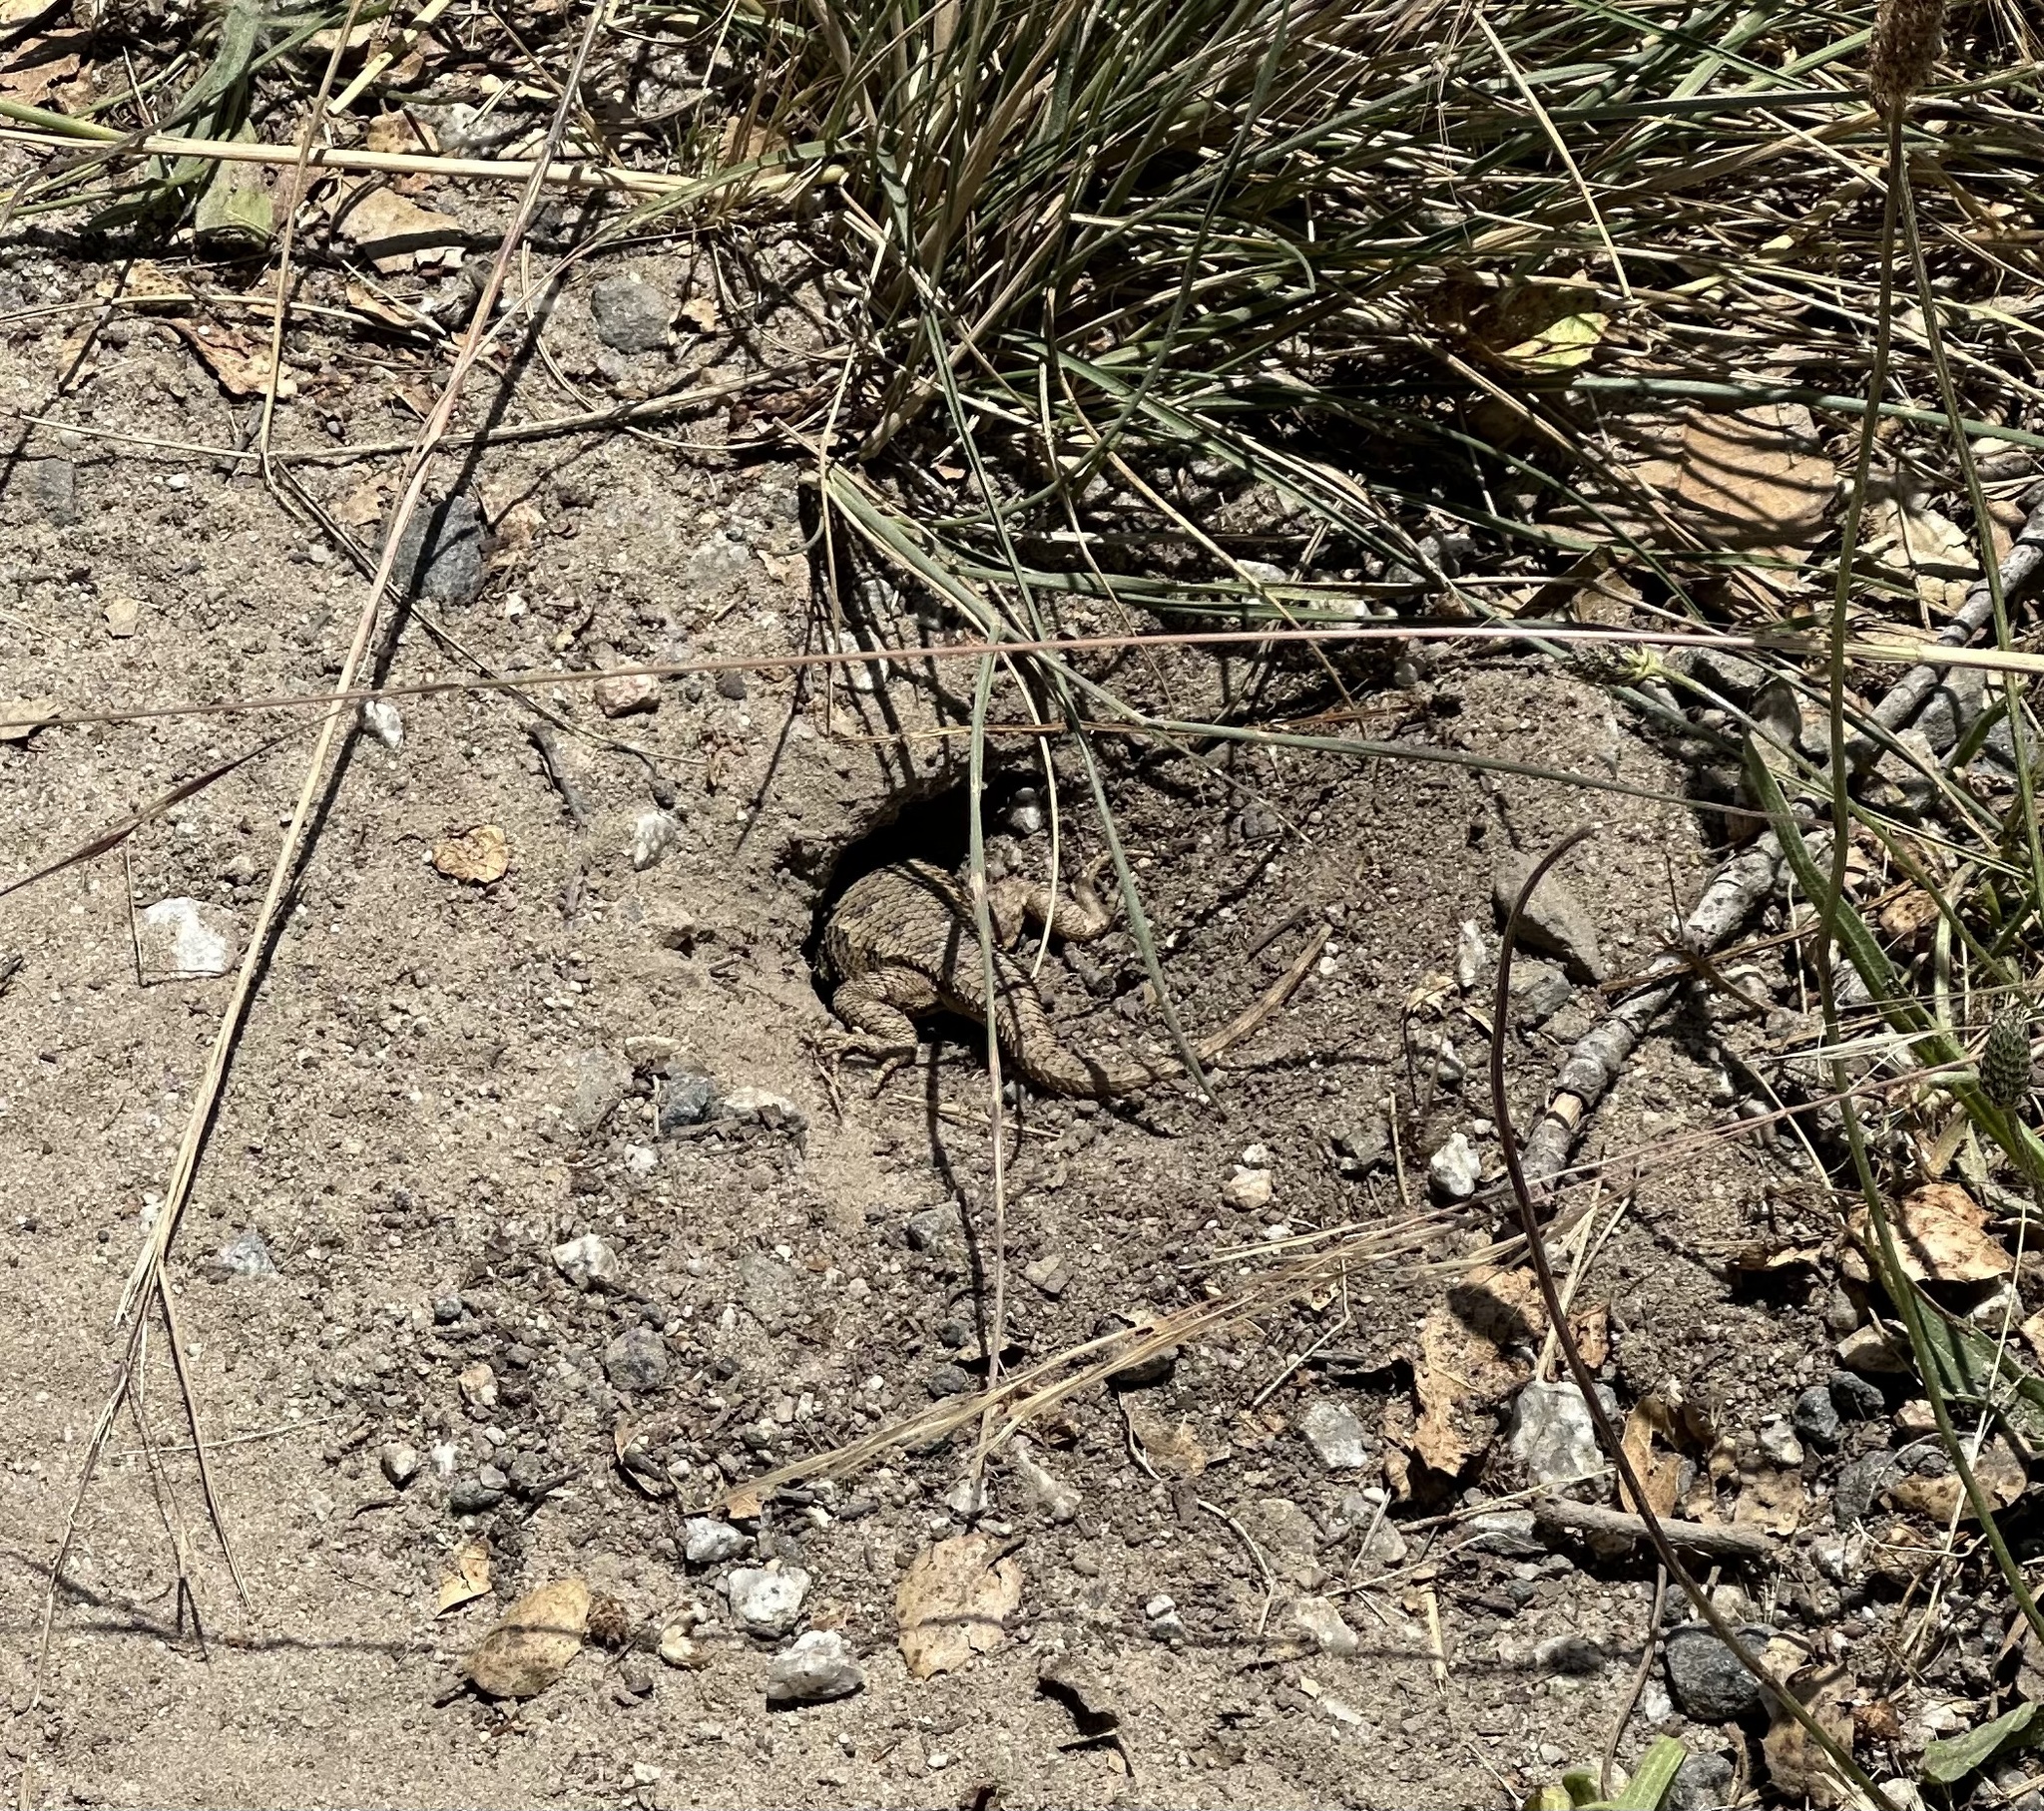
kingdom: Animalia
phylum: Chordata
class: Squamata
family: Phrynosomatidae
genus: Sceloporus
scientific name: Sceloporus occidentalis
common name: Western fence lizard
